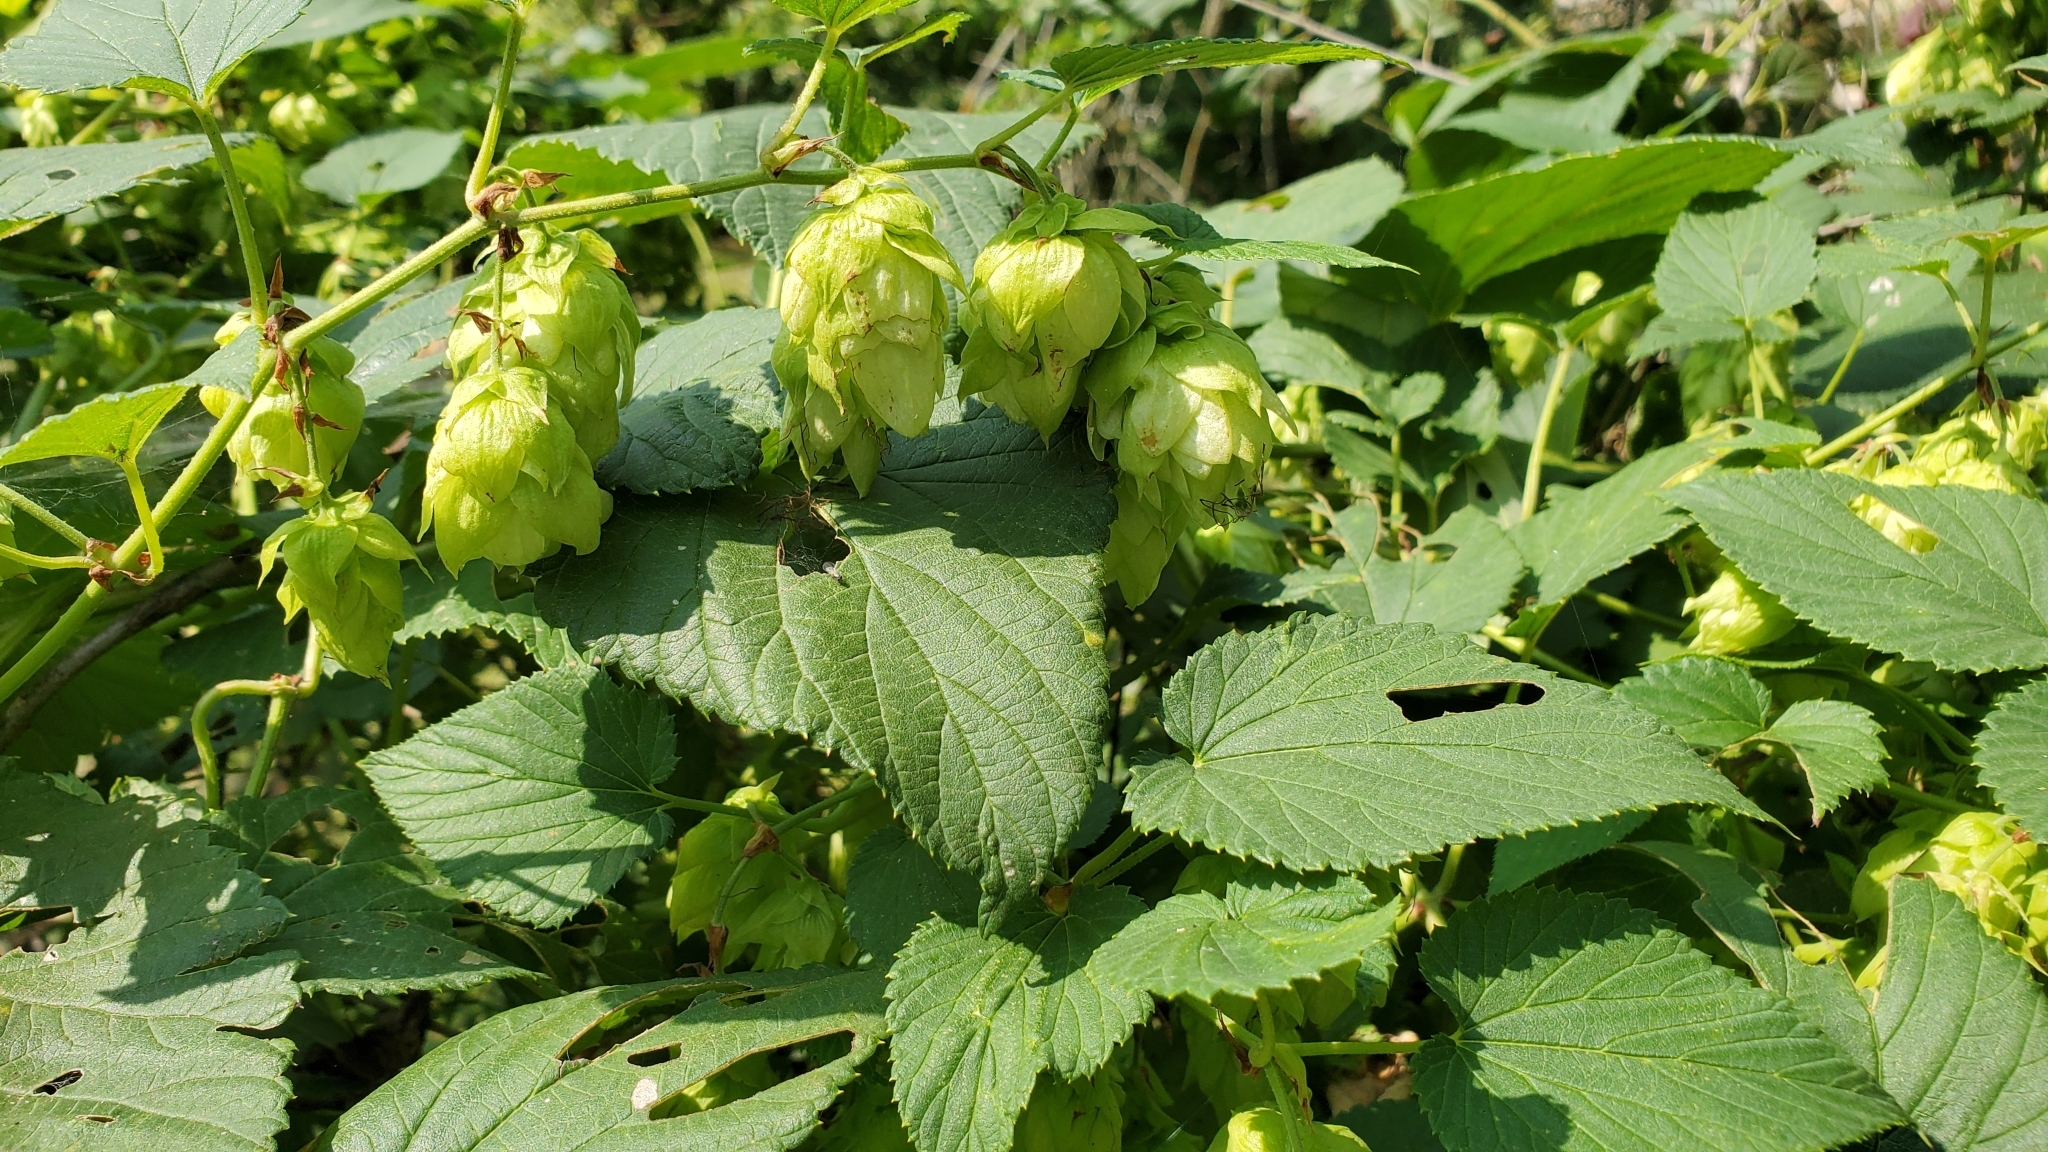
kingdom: Plantae
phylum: Tracheophyta
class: Magnoliopsida
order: Rosales
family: Cannabaceae
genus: Humulus
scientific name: Humulus lupulus
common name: Hop
